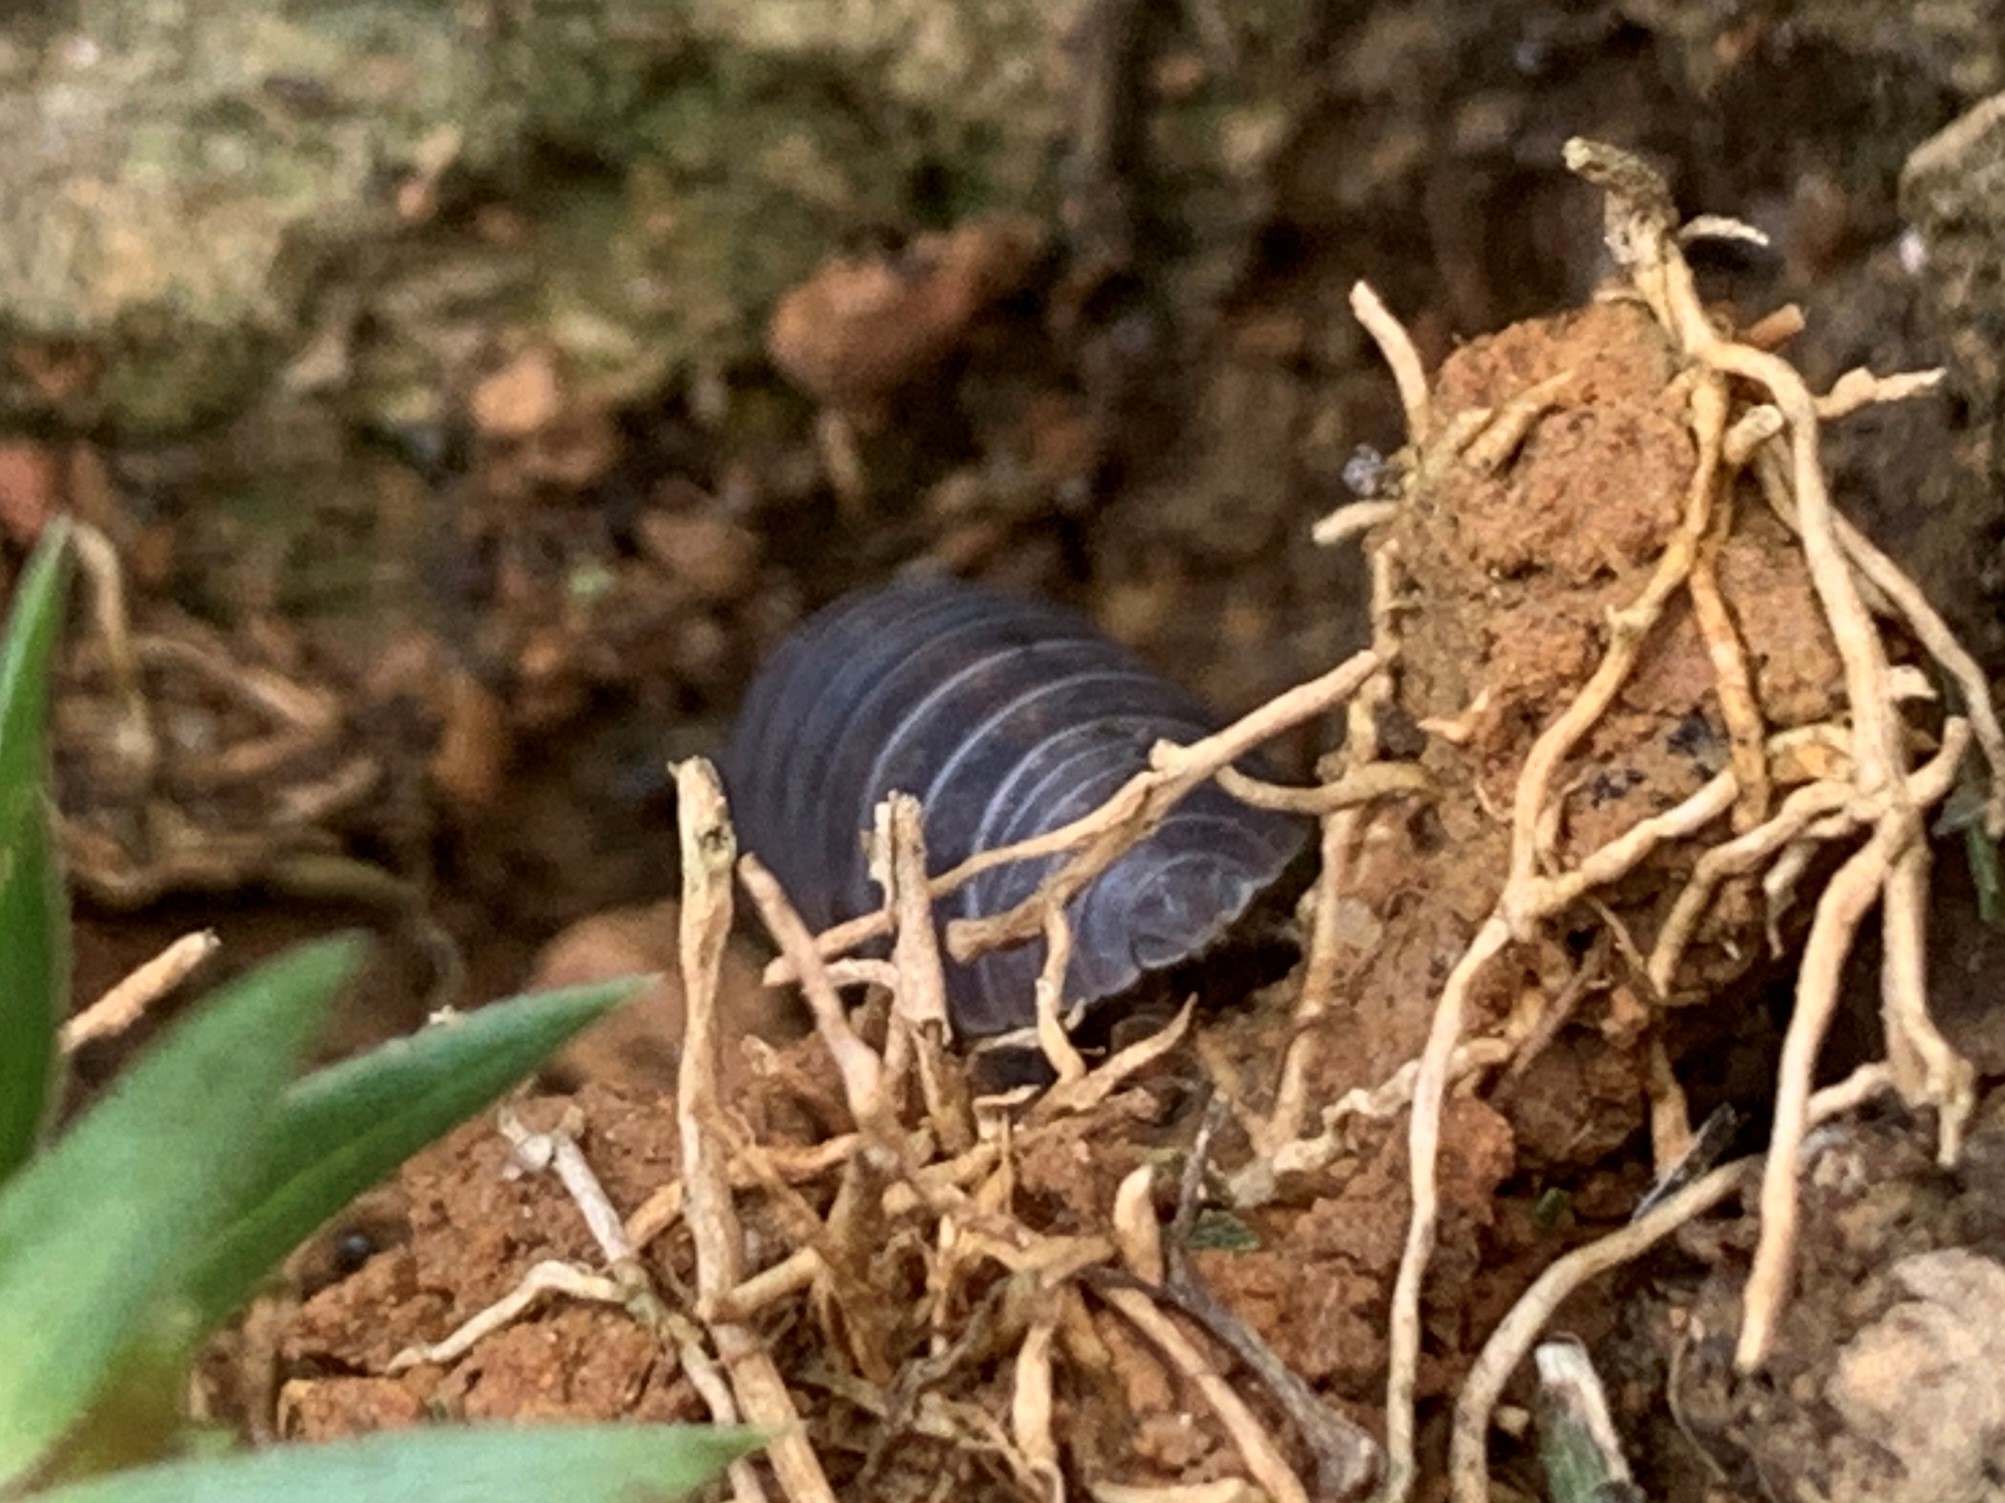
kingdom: Animalia
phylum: Arthropoda
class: Malacostraca
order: Isopoda
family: Armadillidiidae
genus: Armadillidium
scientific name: Armadillidium vulgare
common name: Common pill woodlouse
